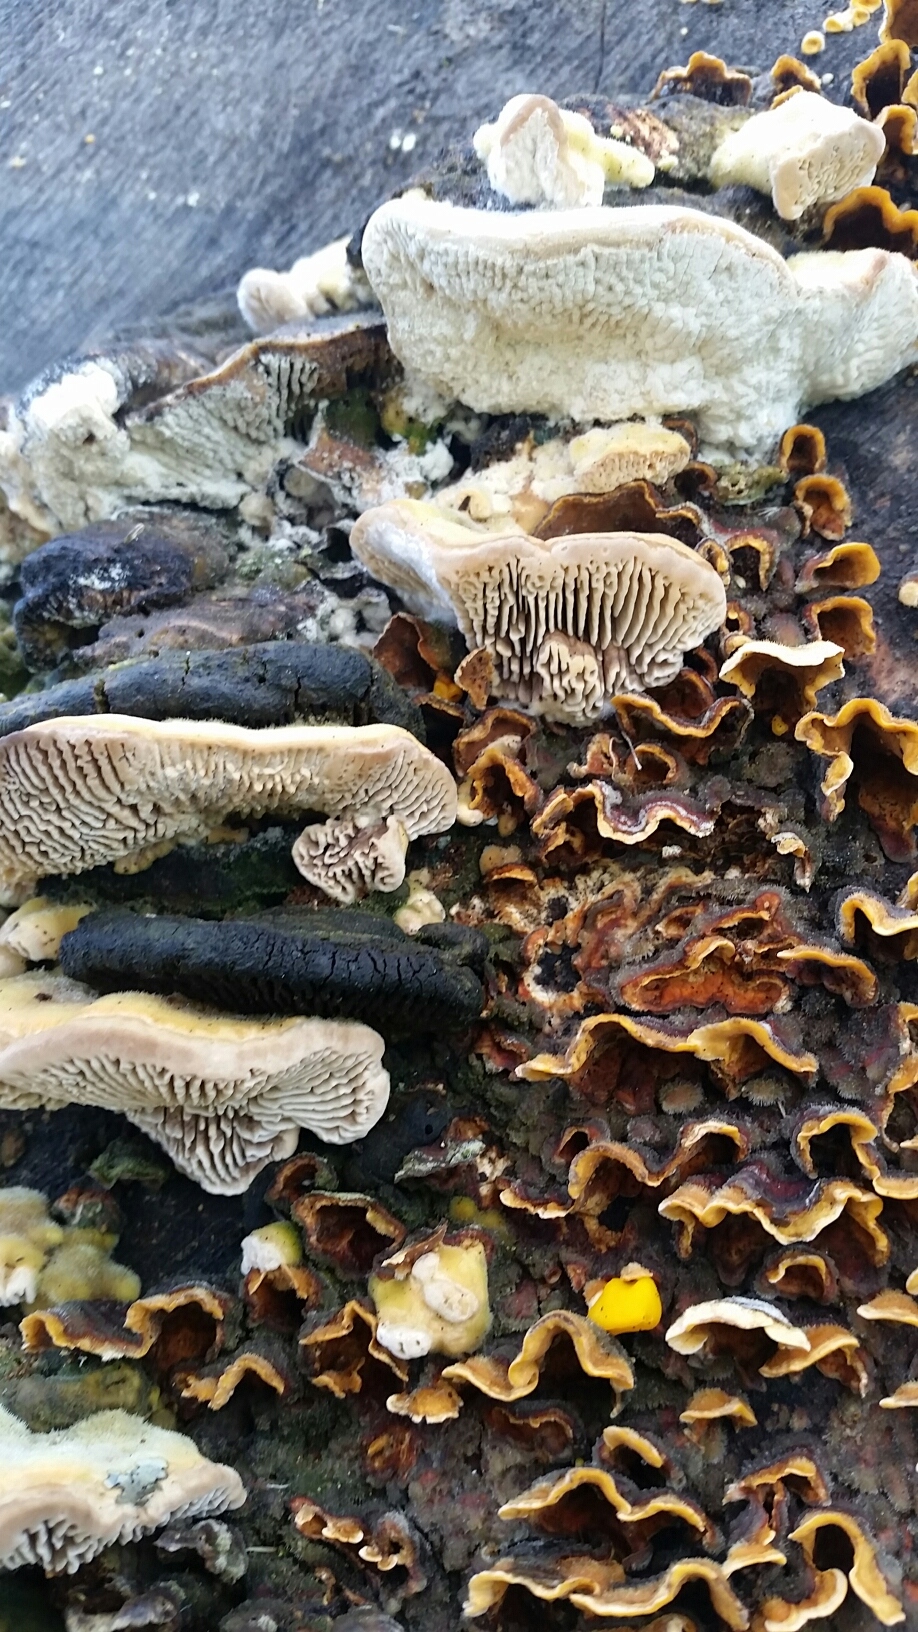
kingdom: Fungi
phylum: Basidiomycota
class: Agaricomycetes
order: Polyporales
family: Polyporaceae
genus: Lenzites
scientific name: Lenzites betulinus
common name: Birch mazegill
